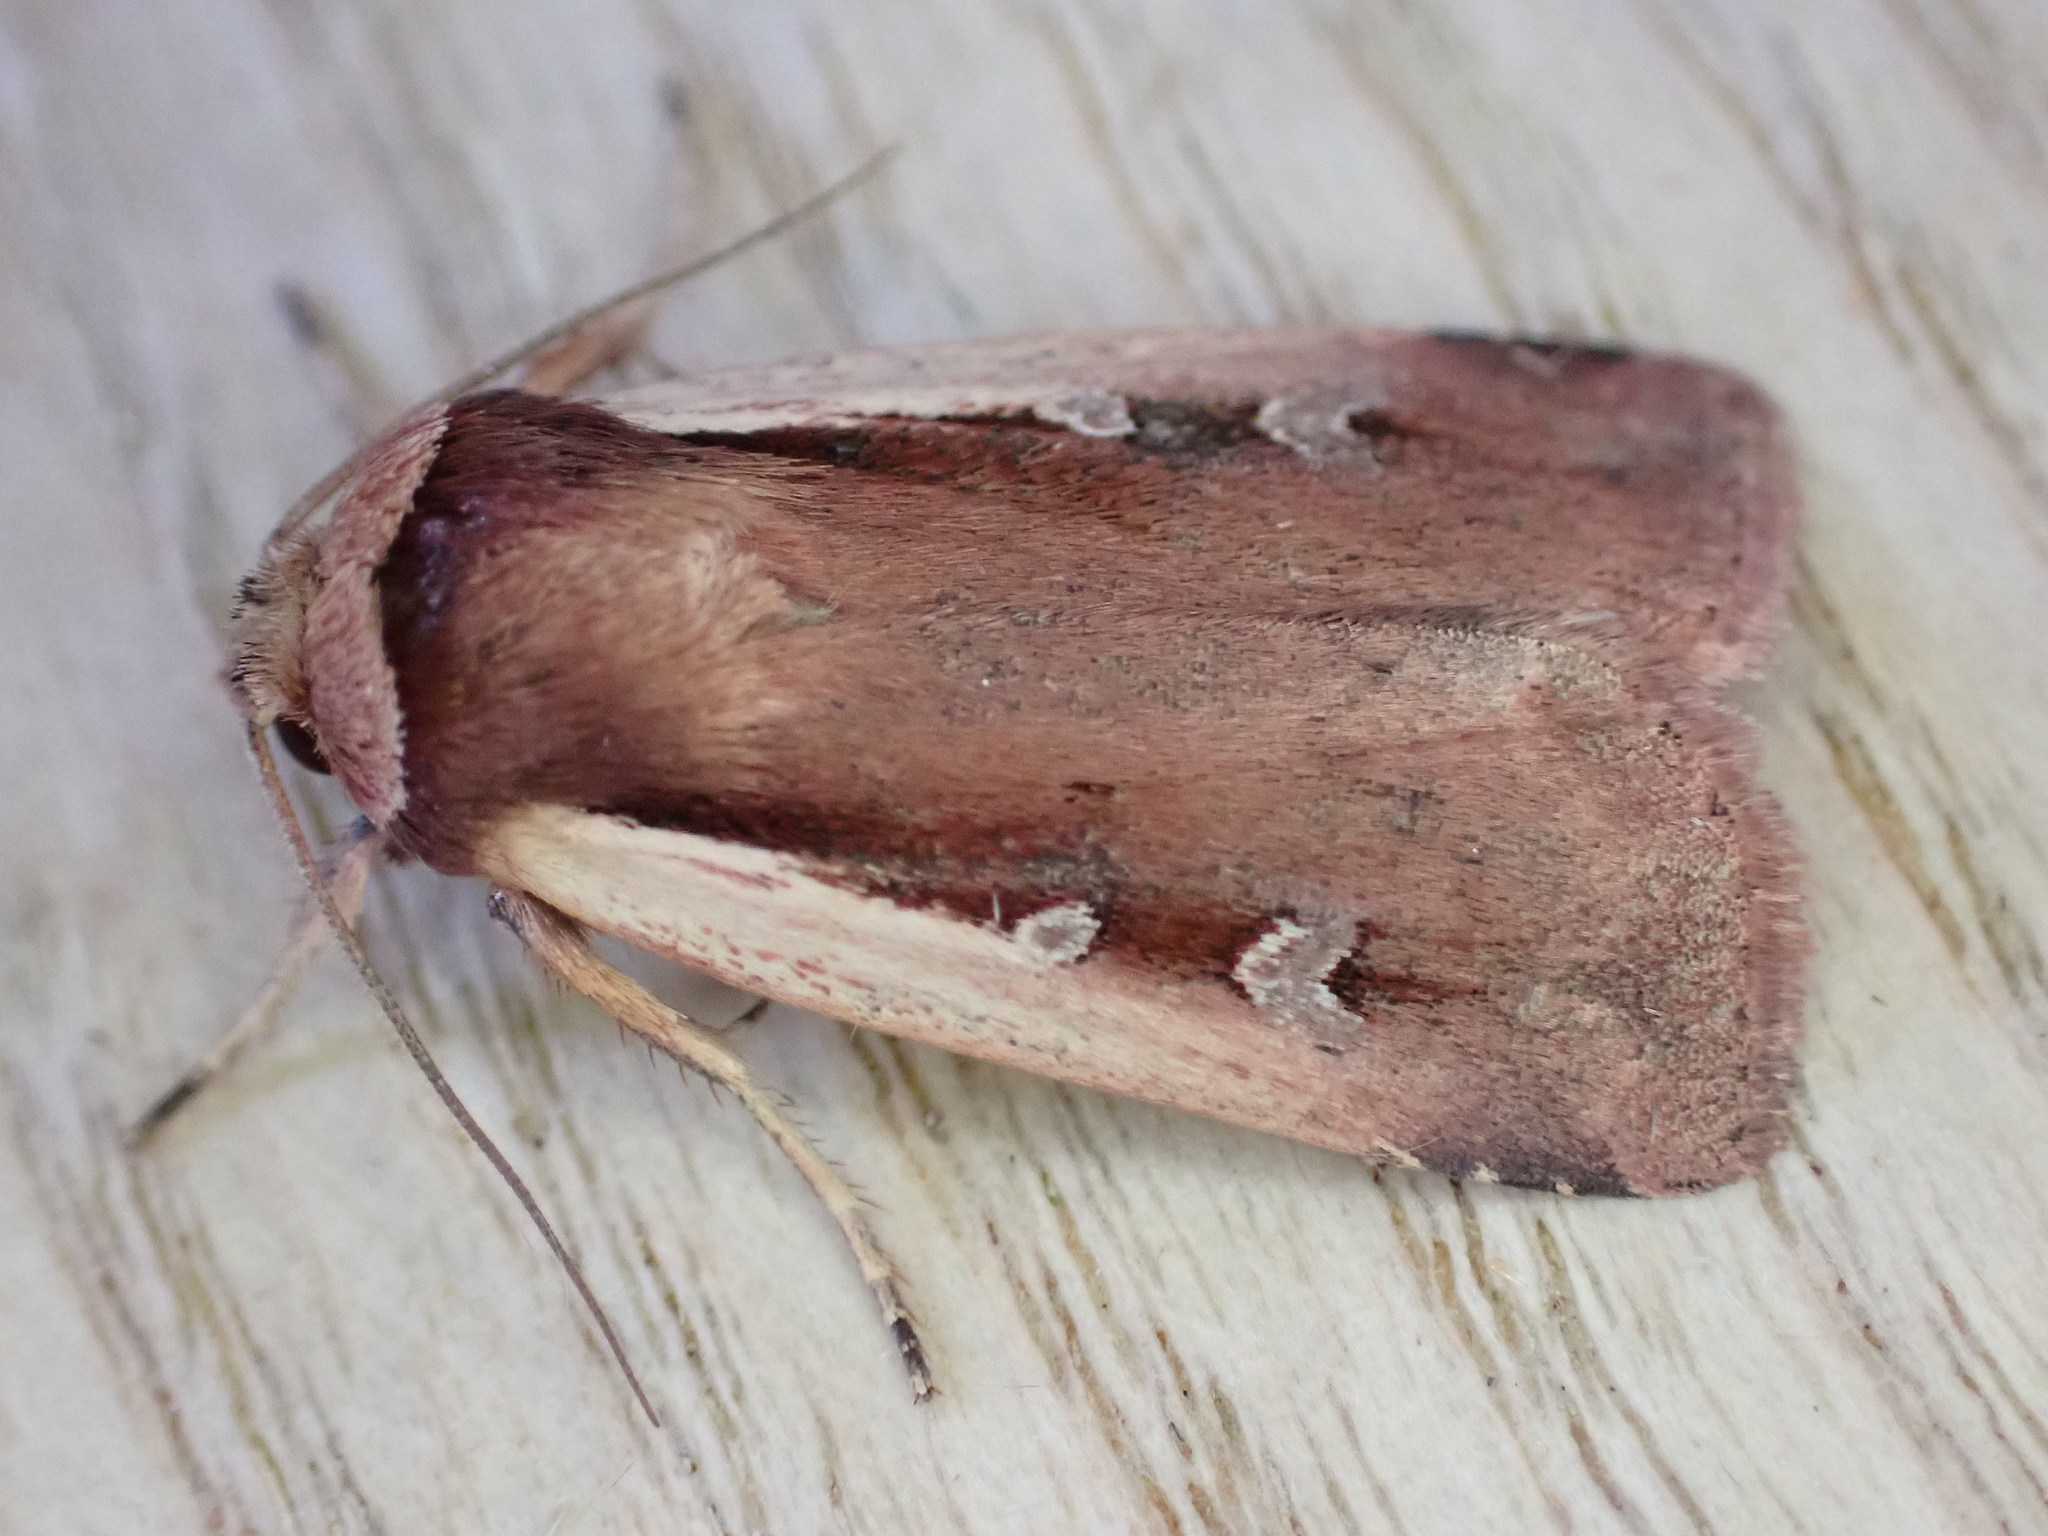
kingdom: Animalia
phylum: Arthropoda
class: Insecta
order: Lepidoptera
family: Noctuidae
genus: Ochropleura
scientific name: Ochropleura plecta
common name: Flame shoulder
